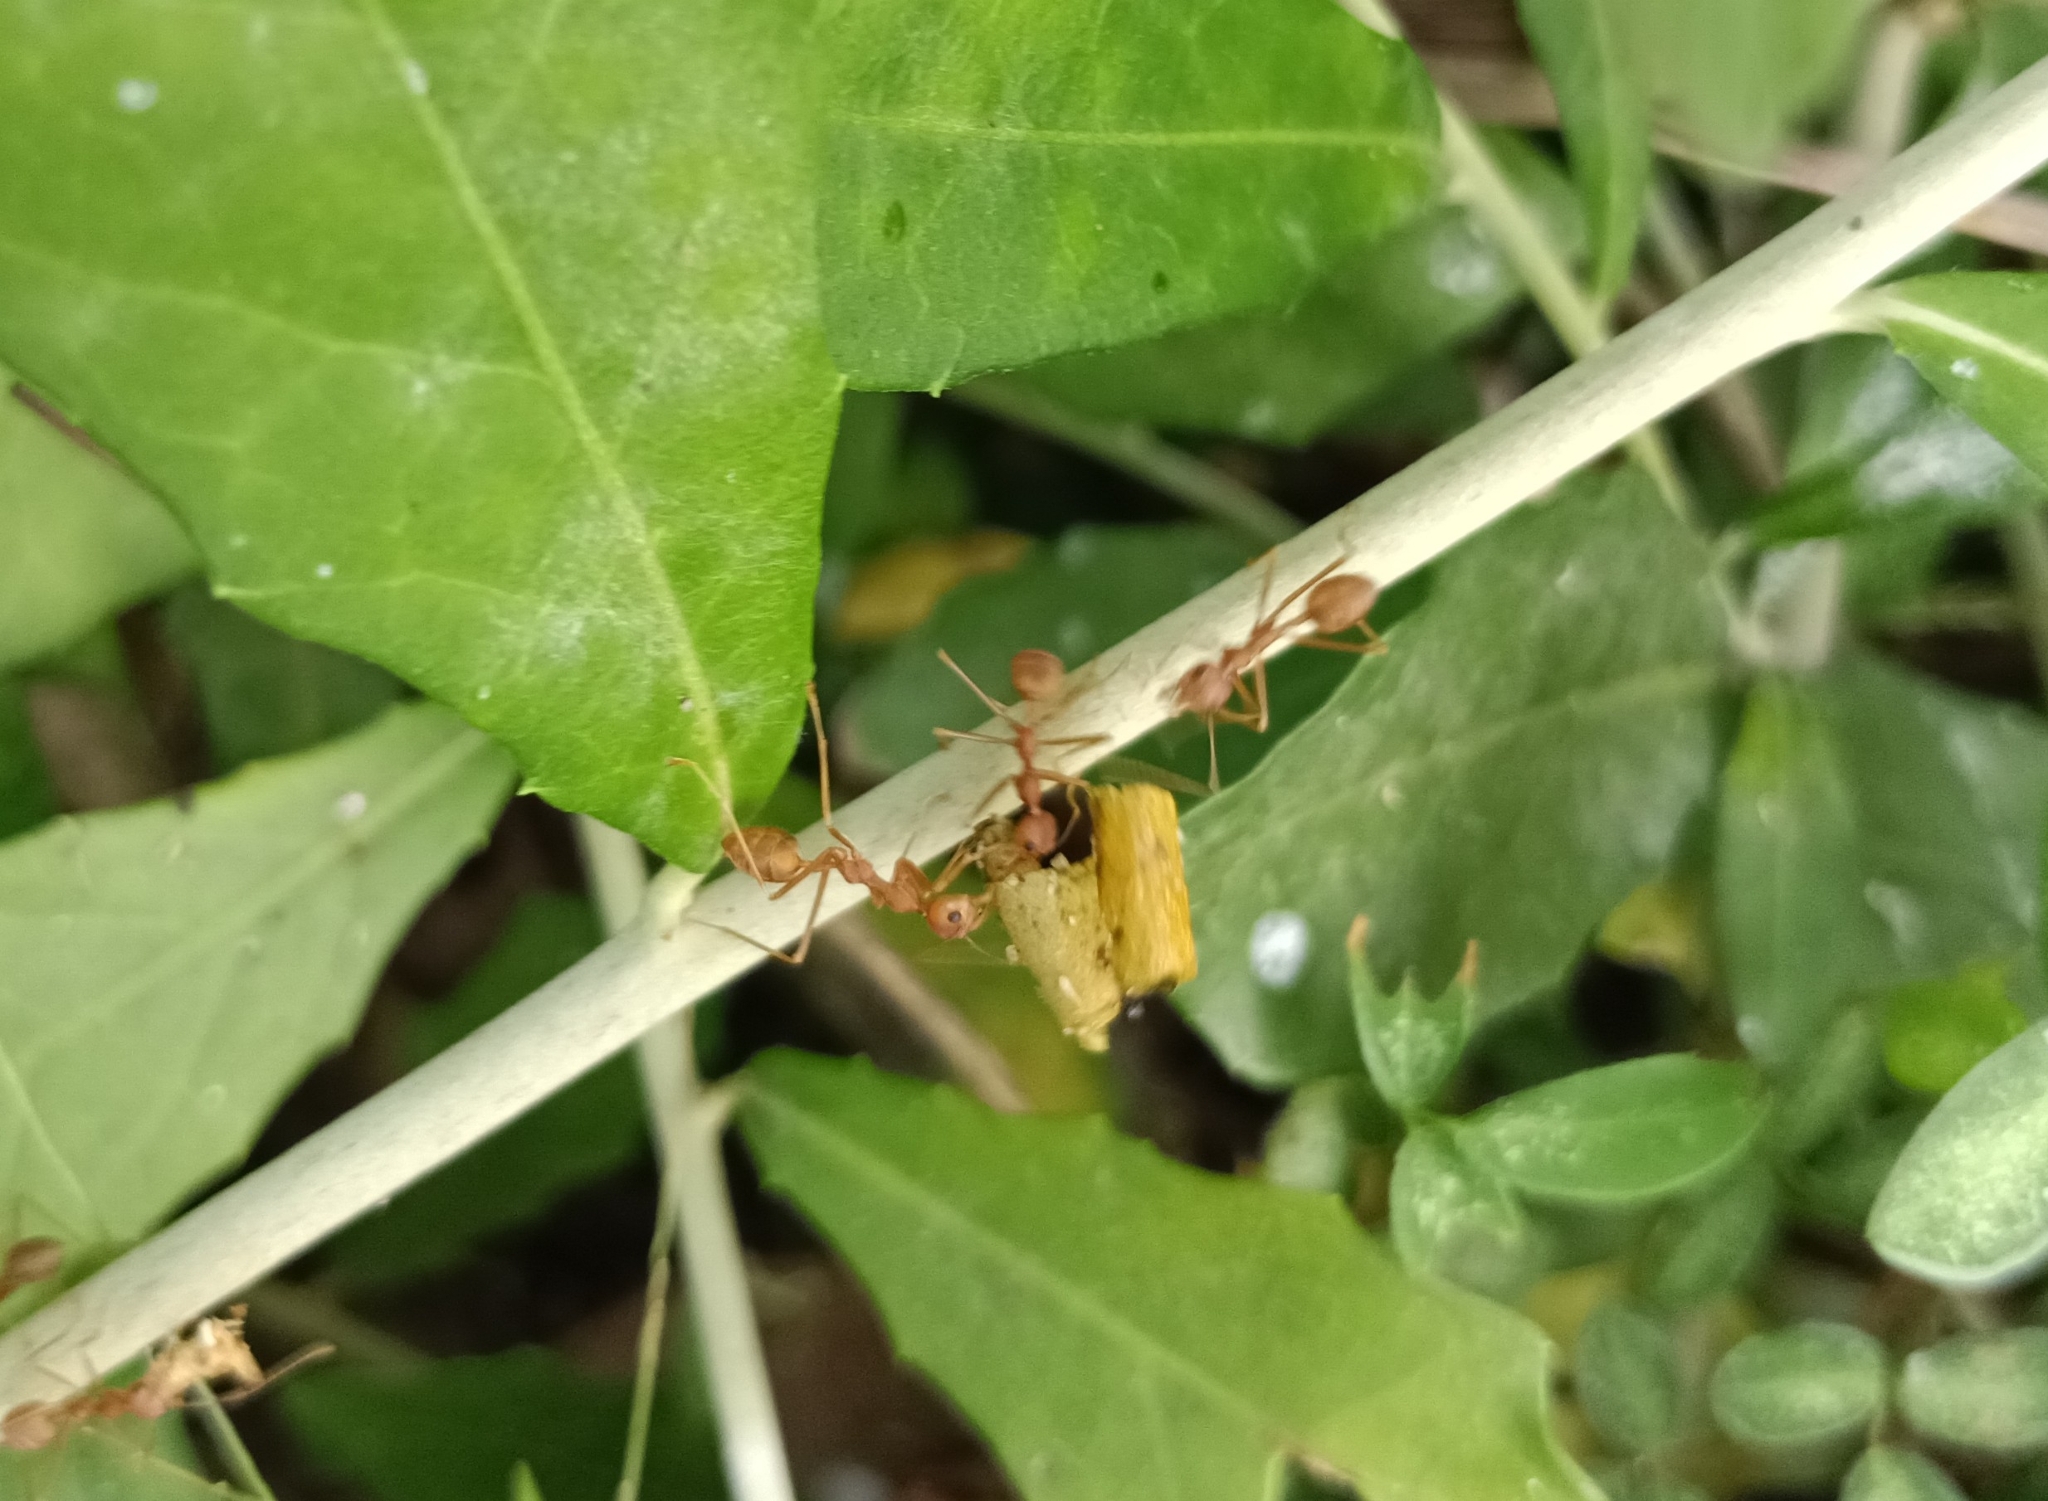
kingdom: Animalia
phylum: Arthropoda
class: Insecta
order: Hymenoptera
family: Formicidae
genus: Oecophylla
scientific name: Oecophylla smaragdina
